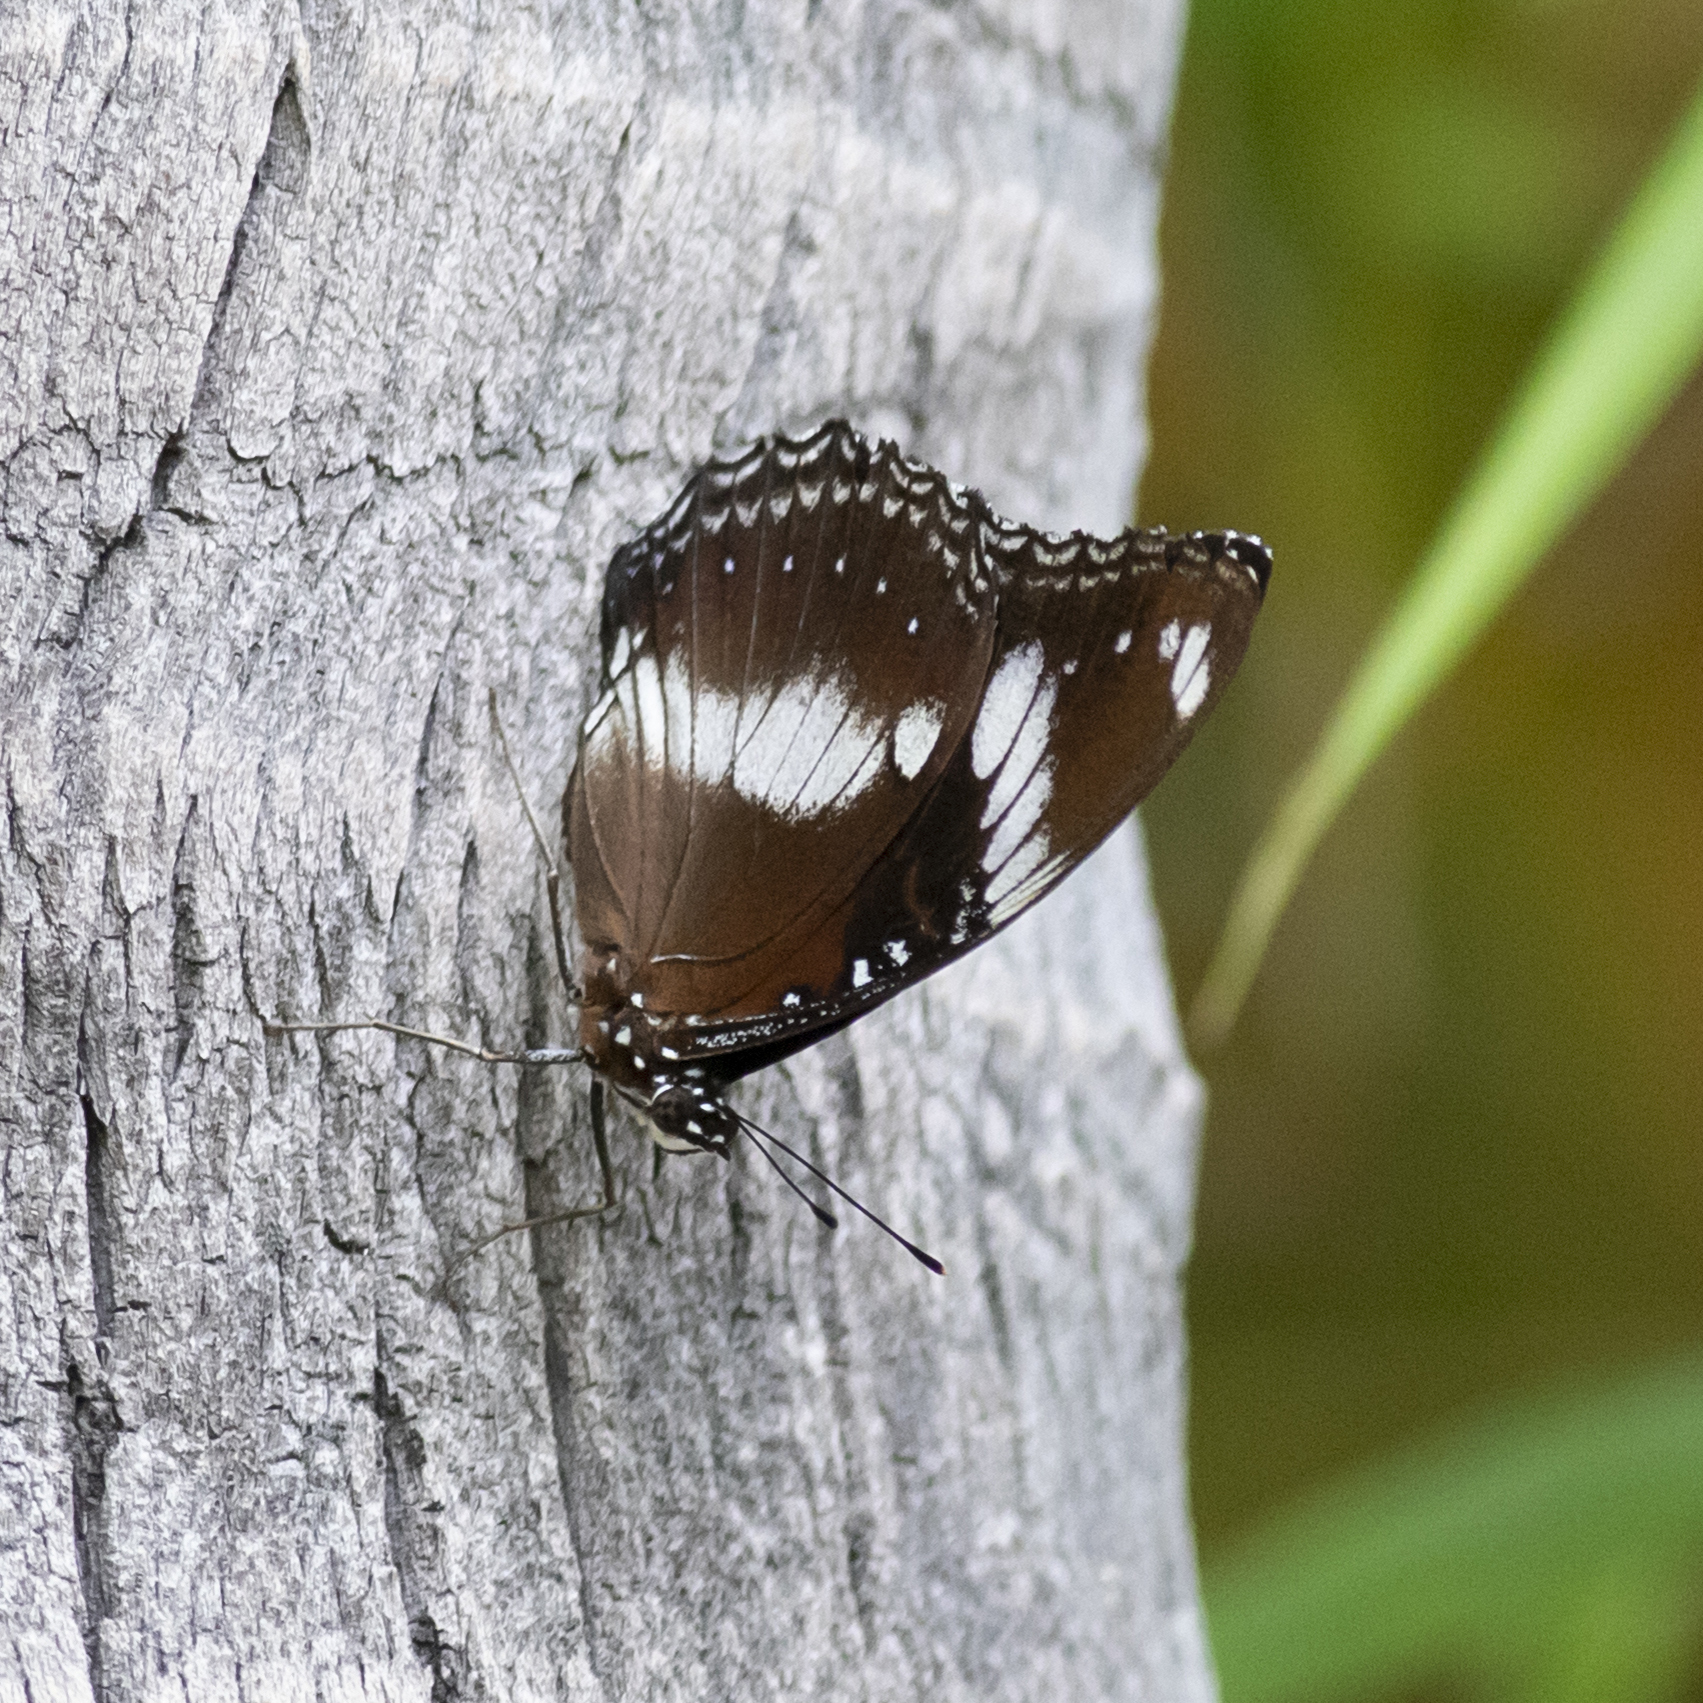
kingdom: Animalia
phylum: Arthropoda
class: Insecta
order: Lepidoptera
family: Nymphalidae
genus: Hypolimnas
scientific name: Hypolimnas bolina
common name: Great eggfly
